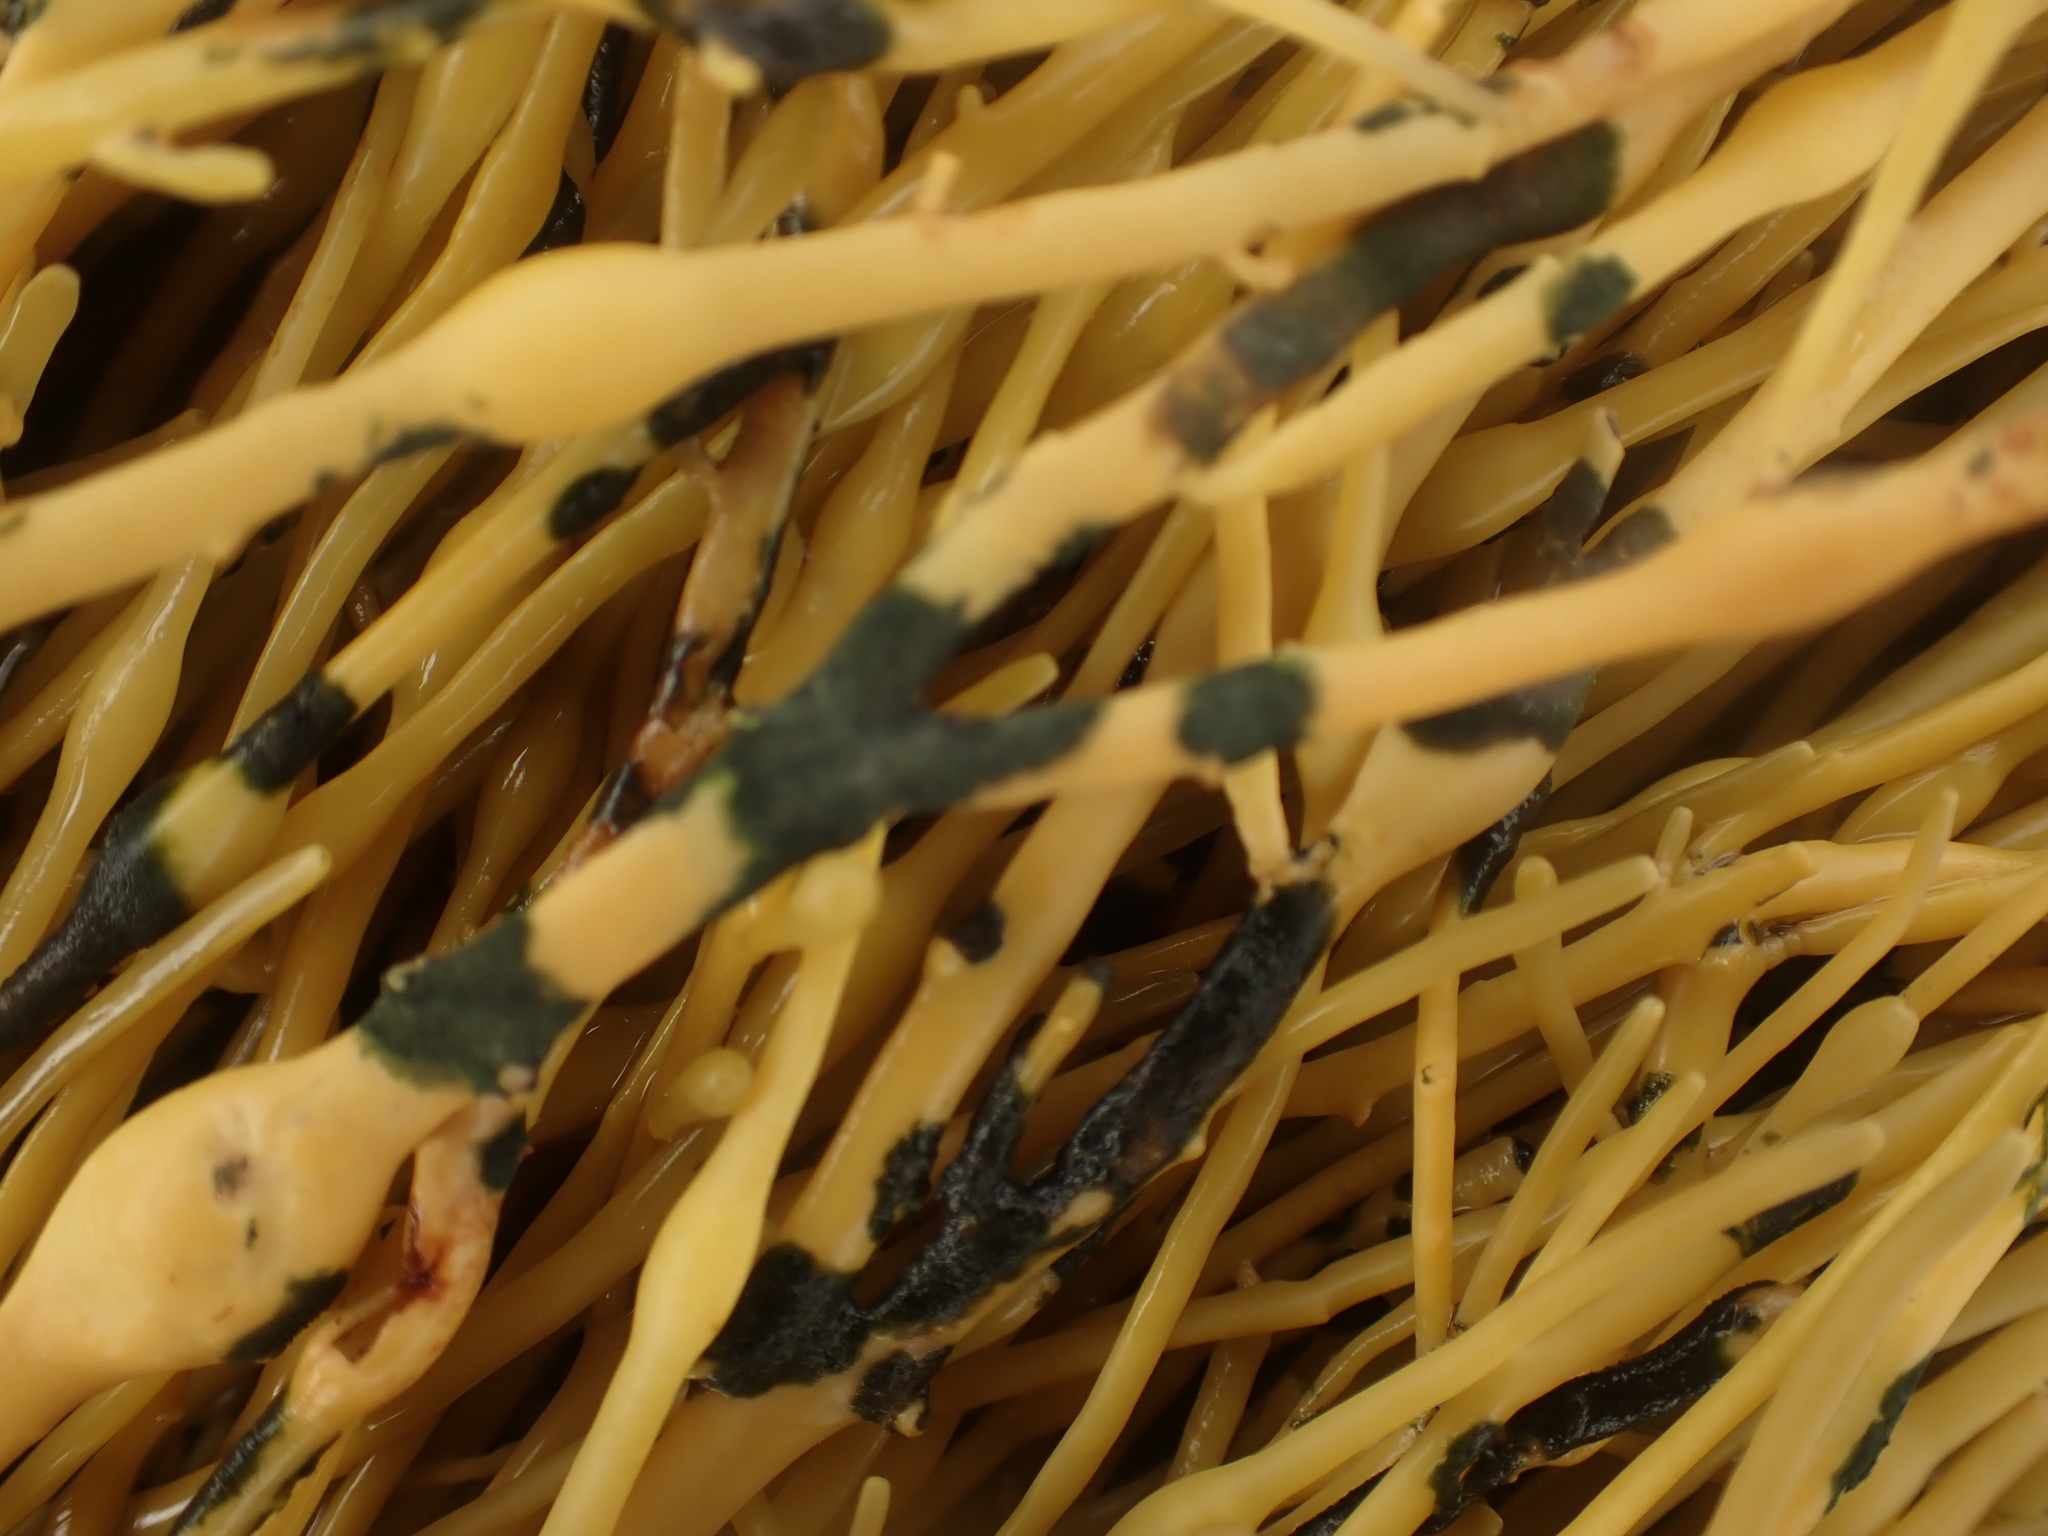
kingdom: Chromista
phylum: Ochrophyta
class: Phaeophyceae
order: Fucales
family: Fucaceae
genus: Ascophyllum
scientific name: Ascophyllum nodosum
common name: Knotted wrack
